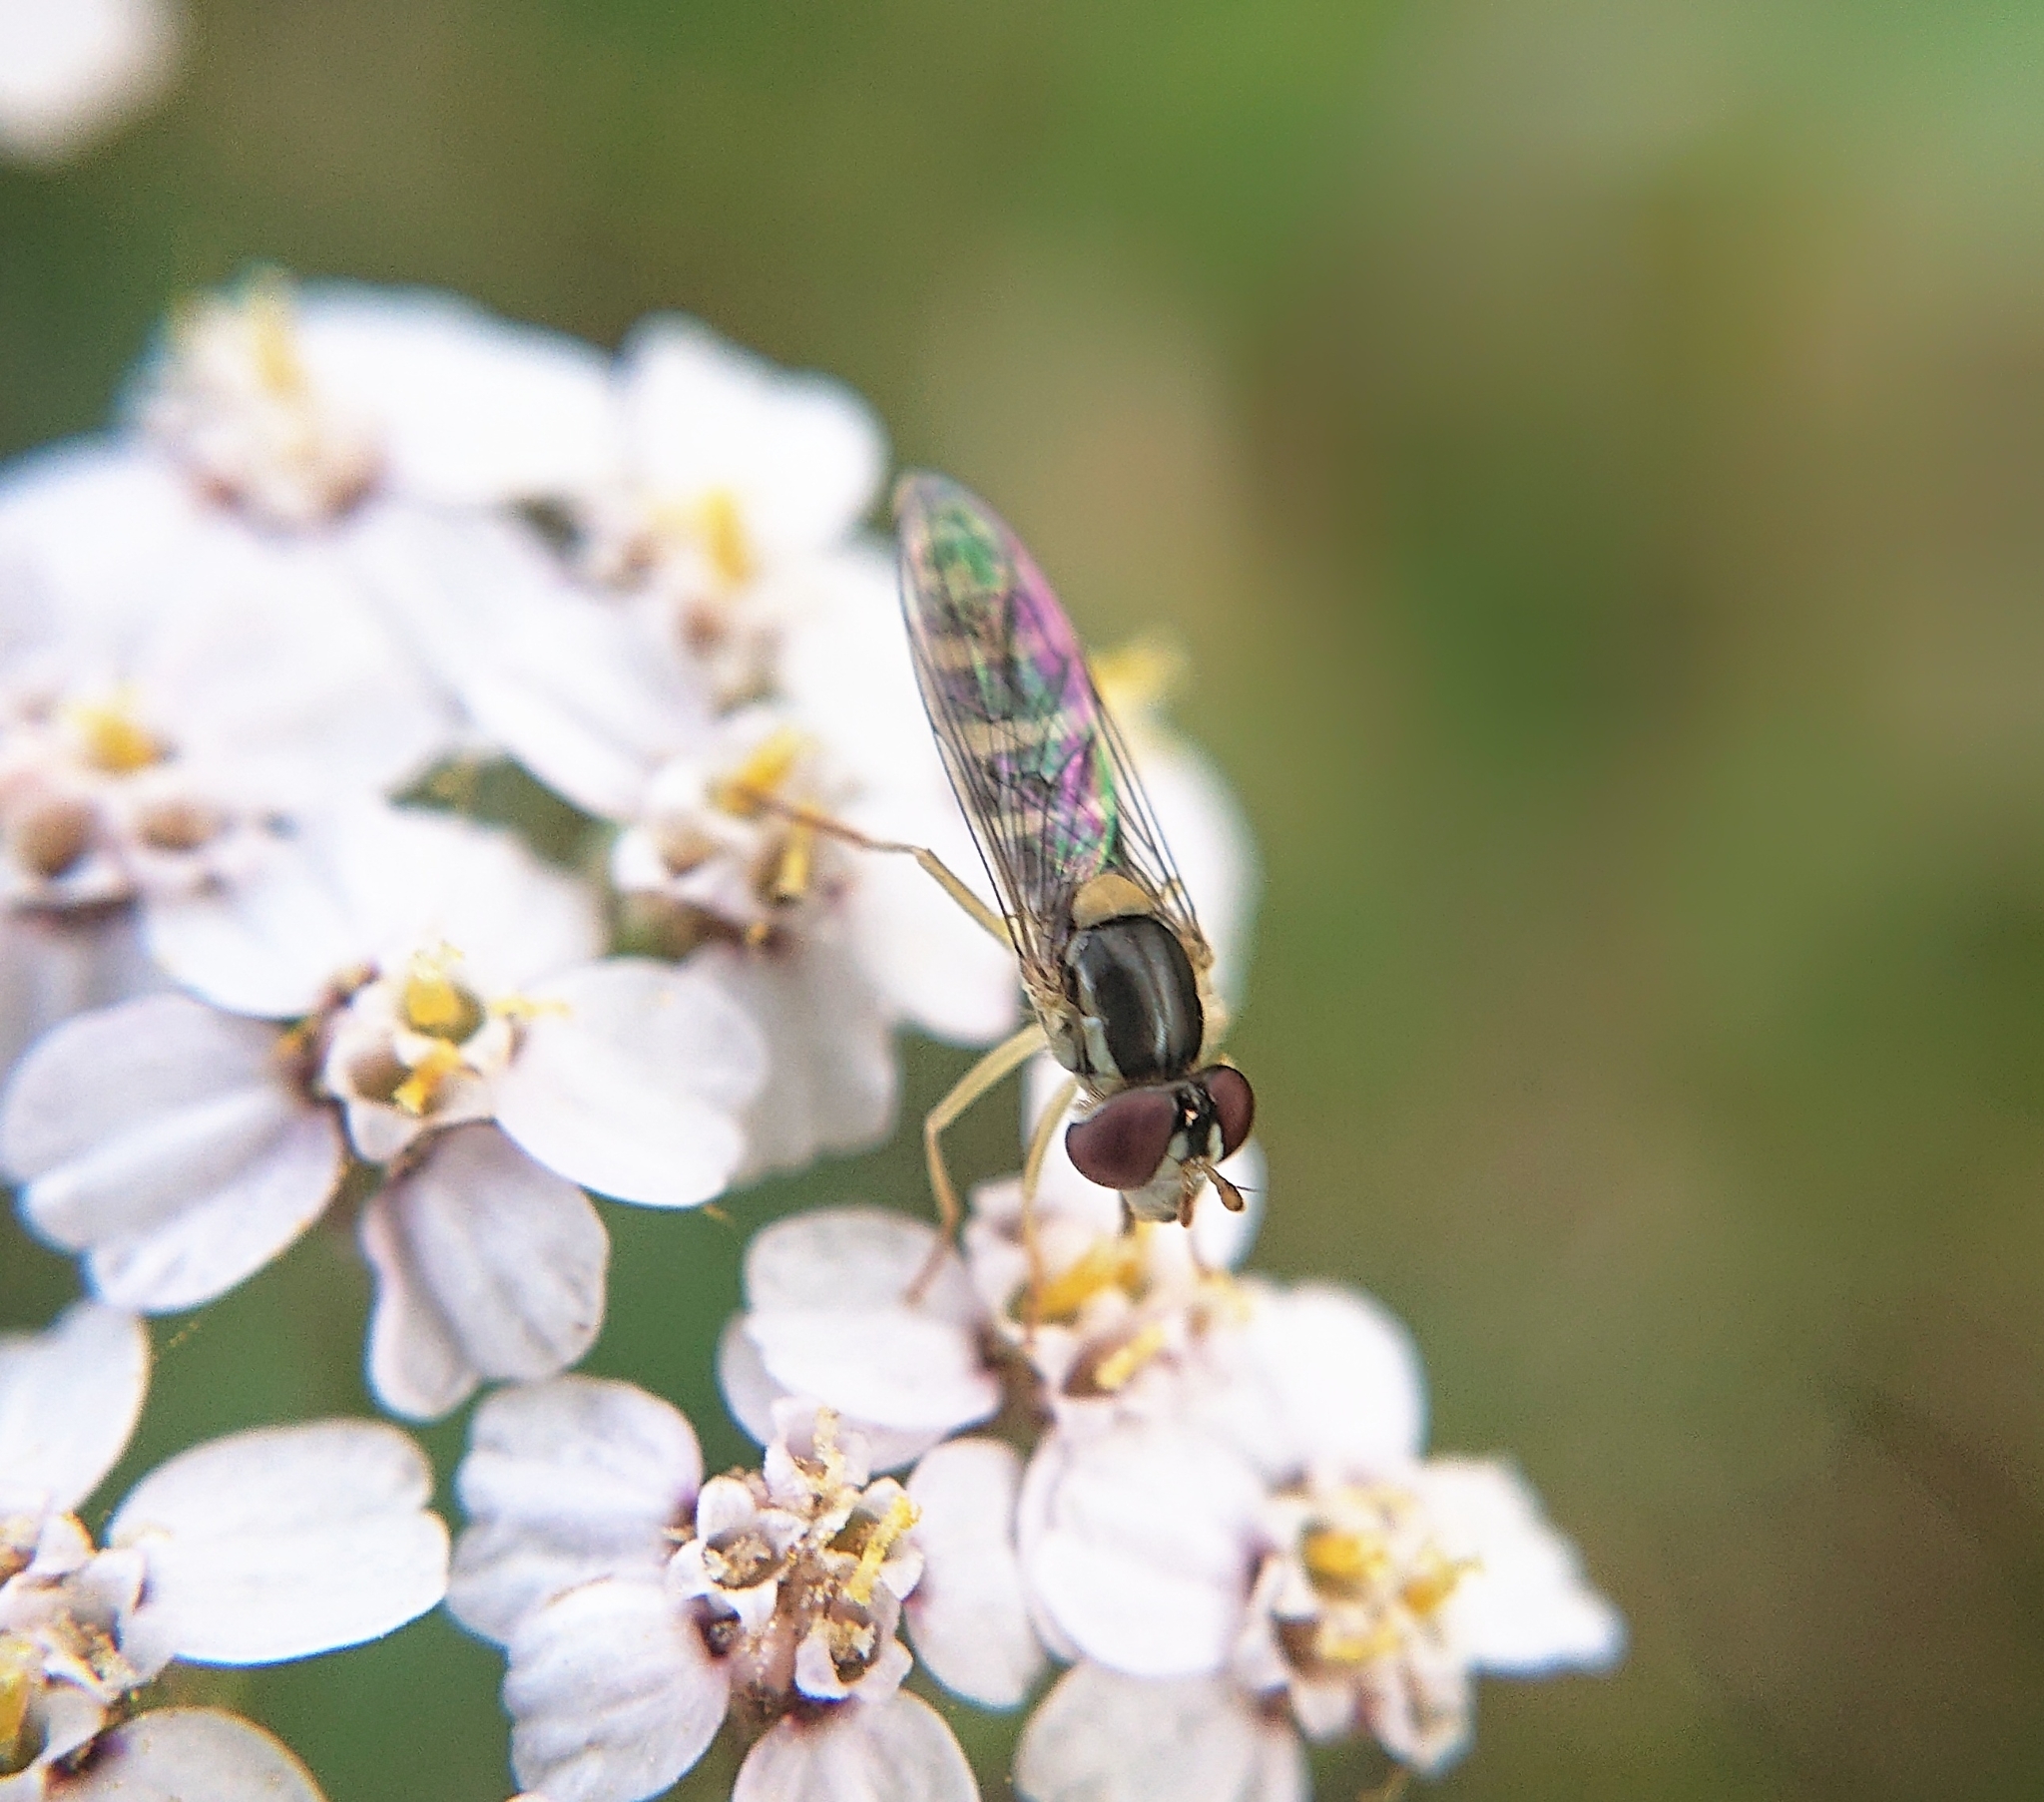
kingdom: Animalia
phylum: Arthropoda
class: Insecta
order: Diptera
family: Syrphidae
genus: Sphaerophoria
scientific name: Sphaerophoria
